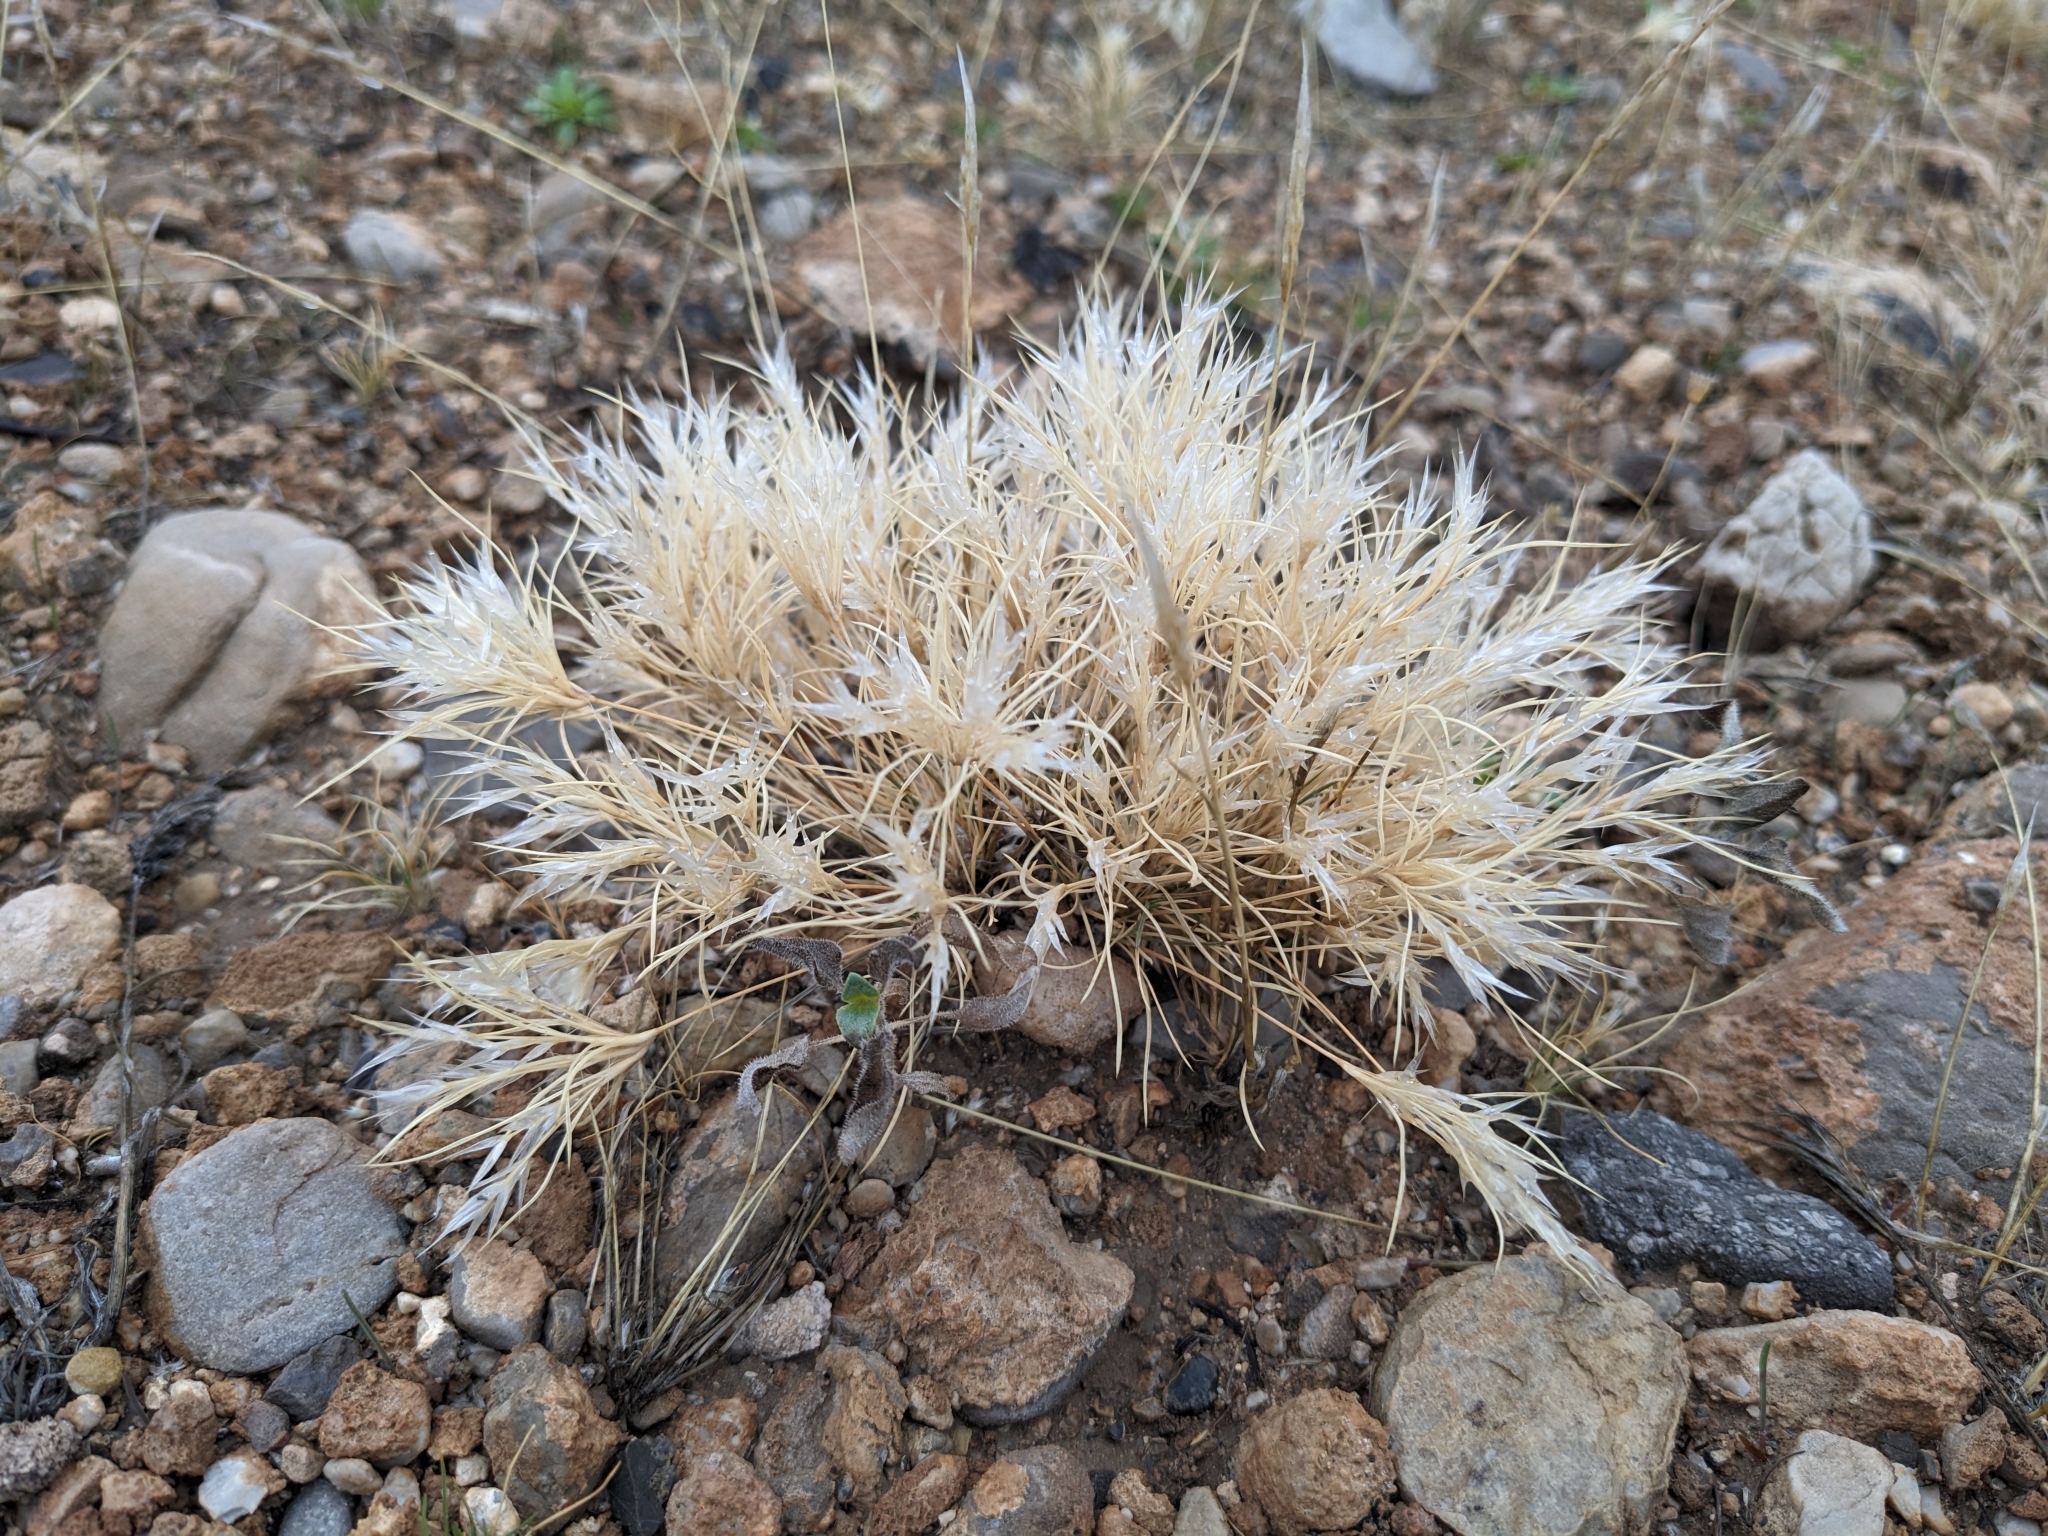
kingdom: Plantae
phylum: Tracheophyta
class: Liliopsida
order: Poales
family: Poaceae
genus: Dasyochloa
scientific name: Dasyochloa pulchella
